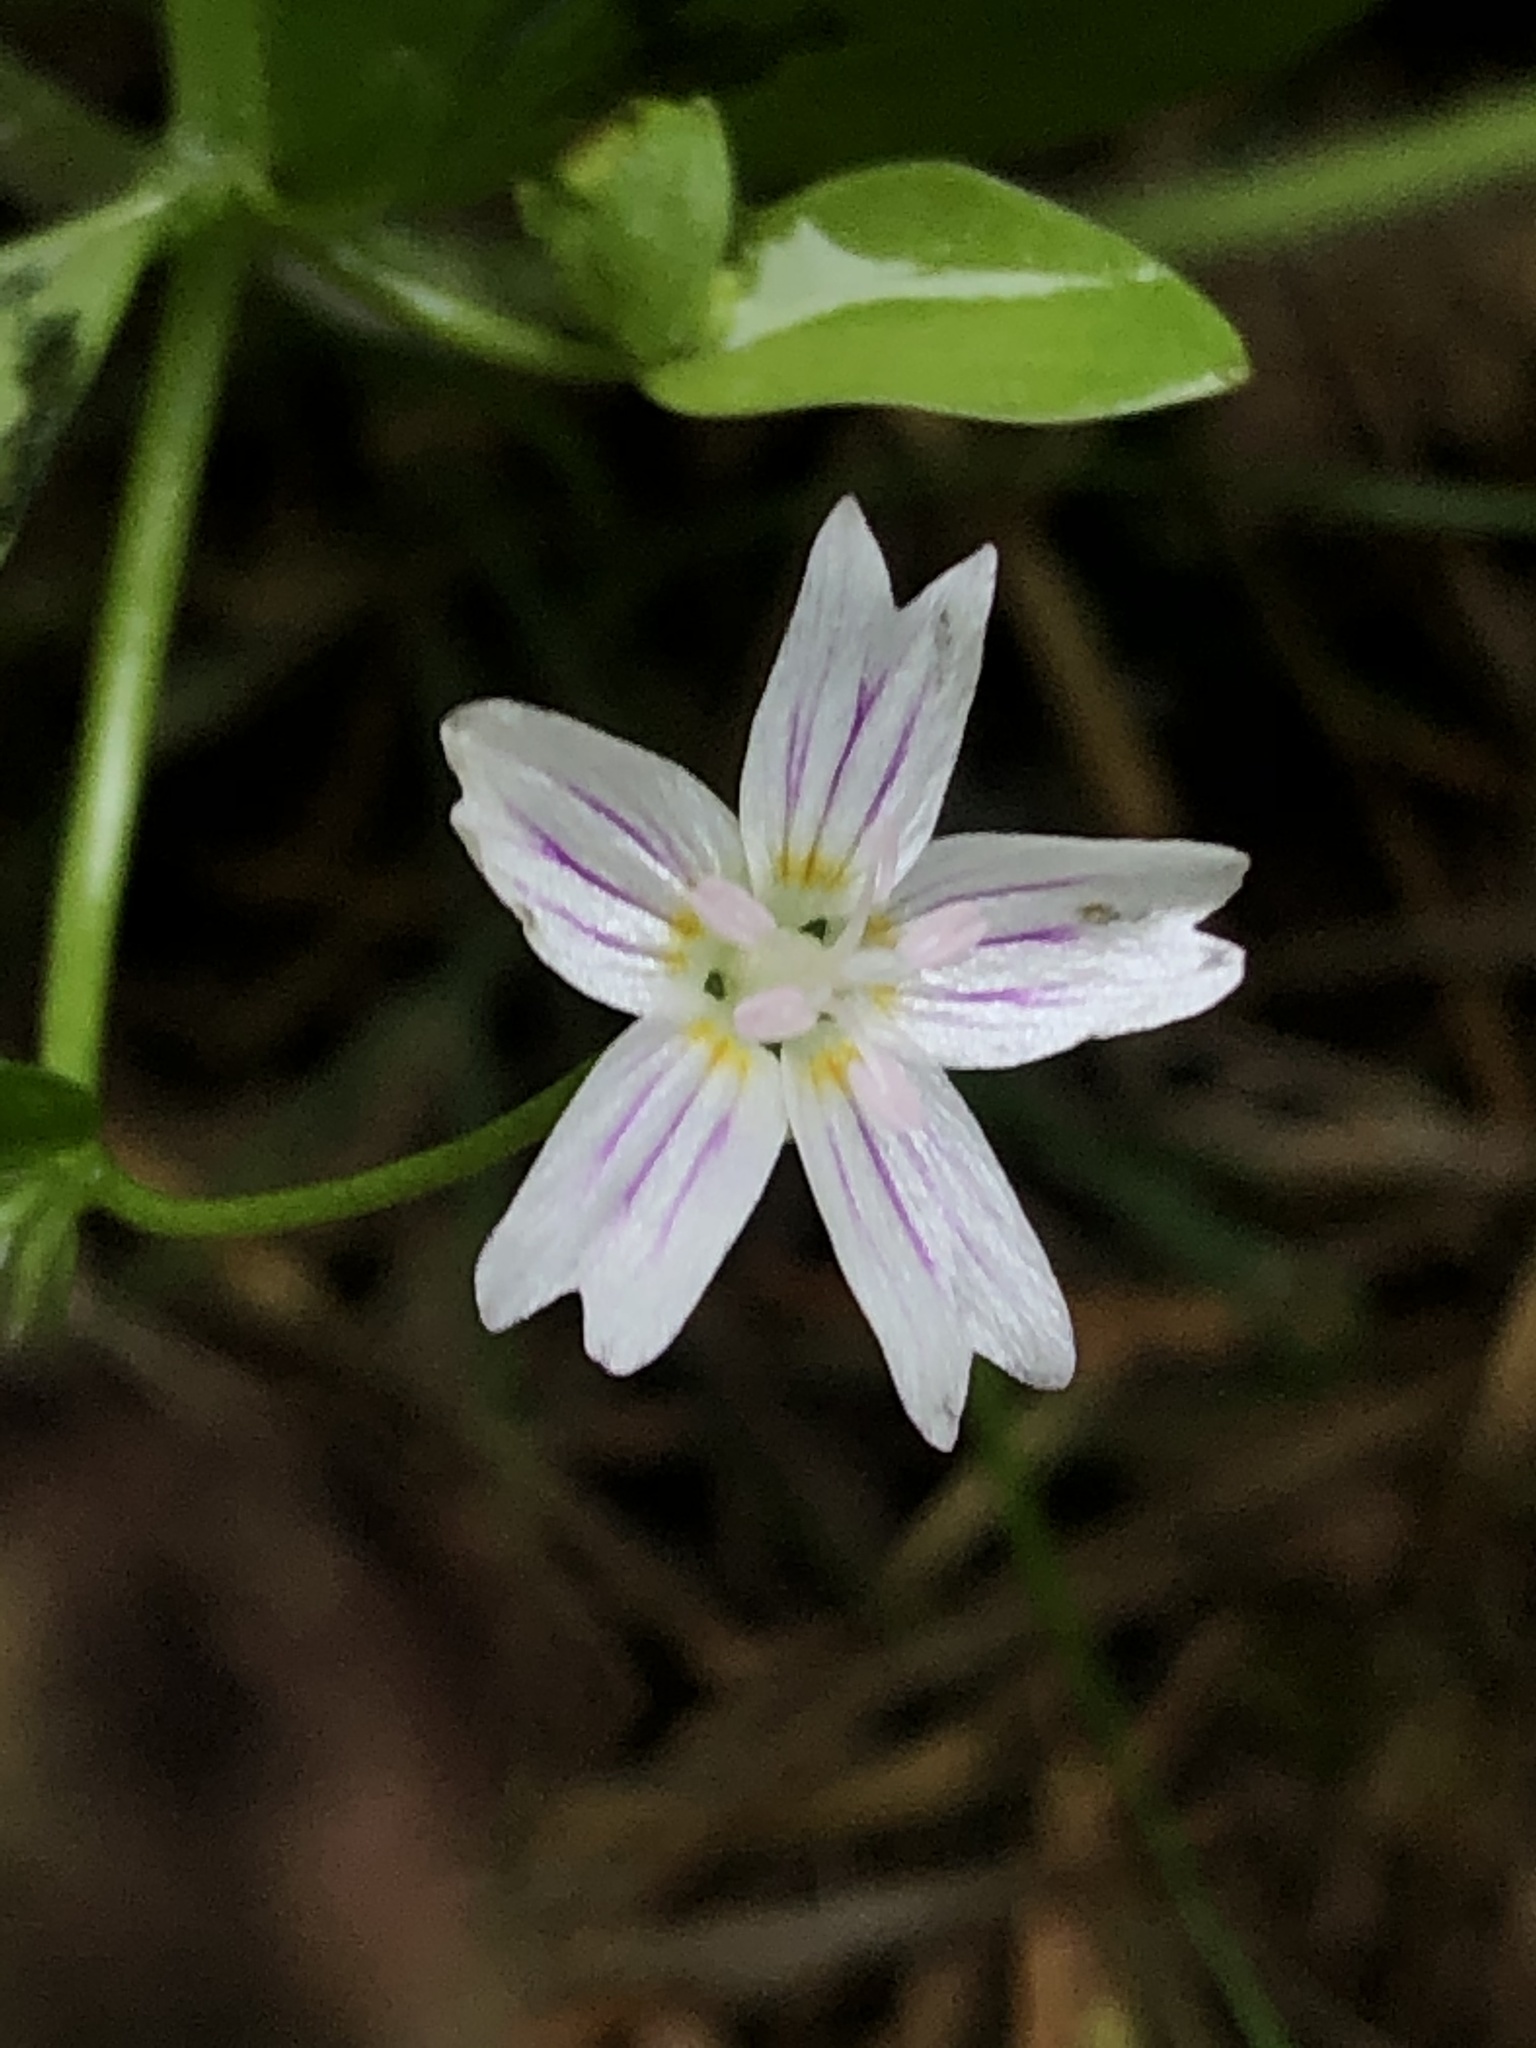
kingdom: Plantae
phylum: Tracheophyta
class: Magnoliopsida
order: Caryophyllales
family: Montiaceae
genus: Claytonia
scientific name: Claytonia sibirica
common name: Pink purslane
